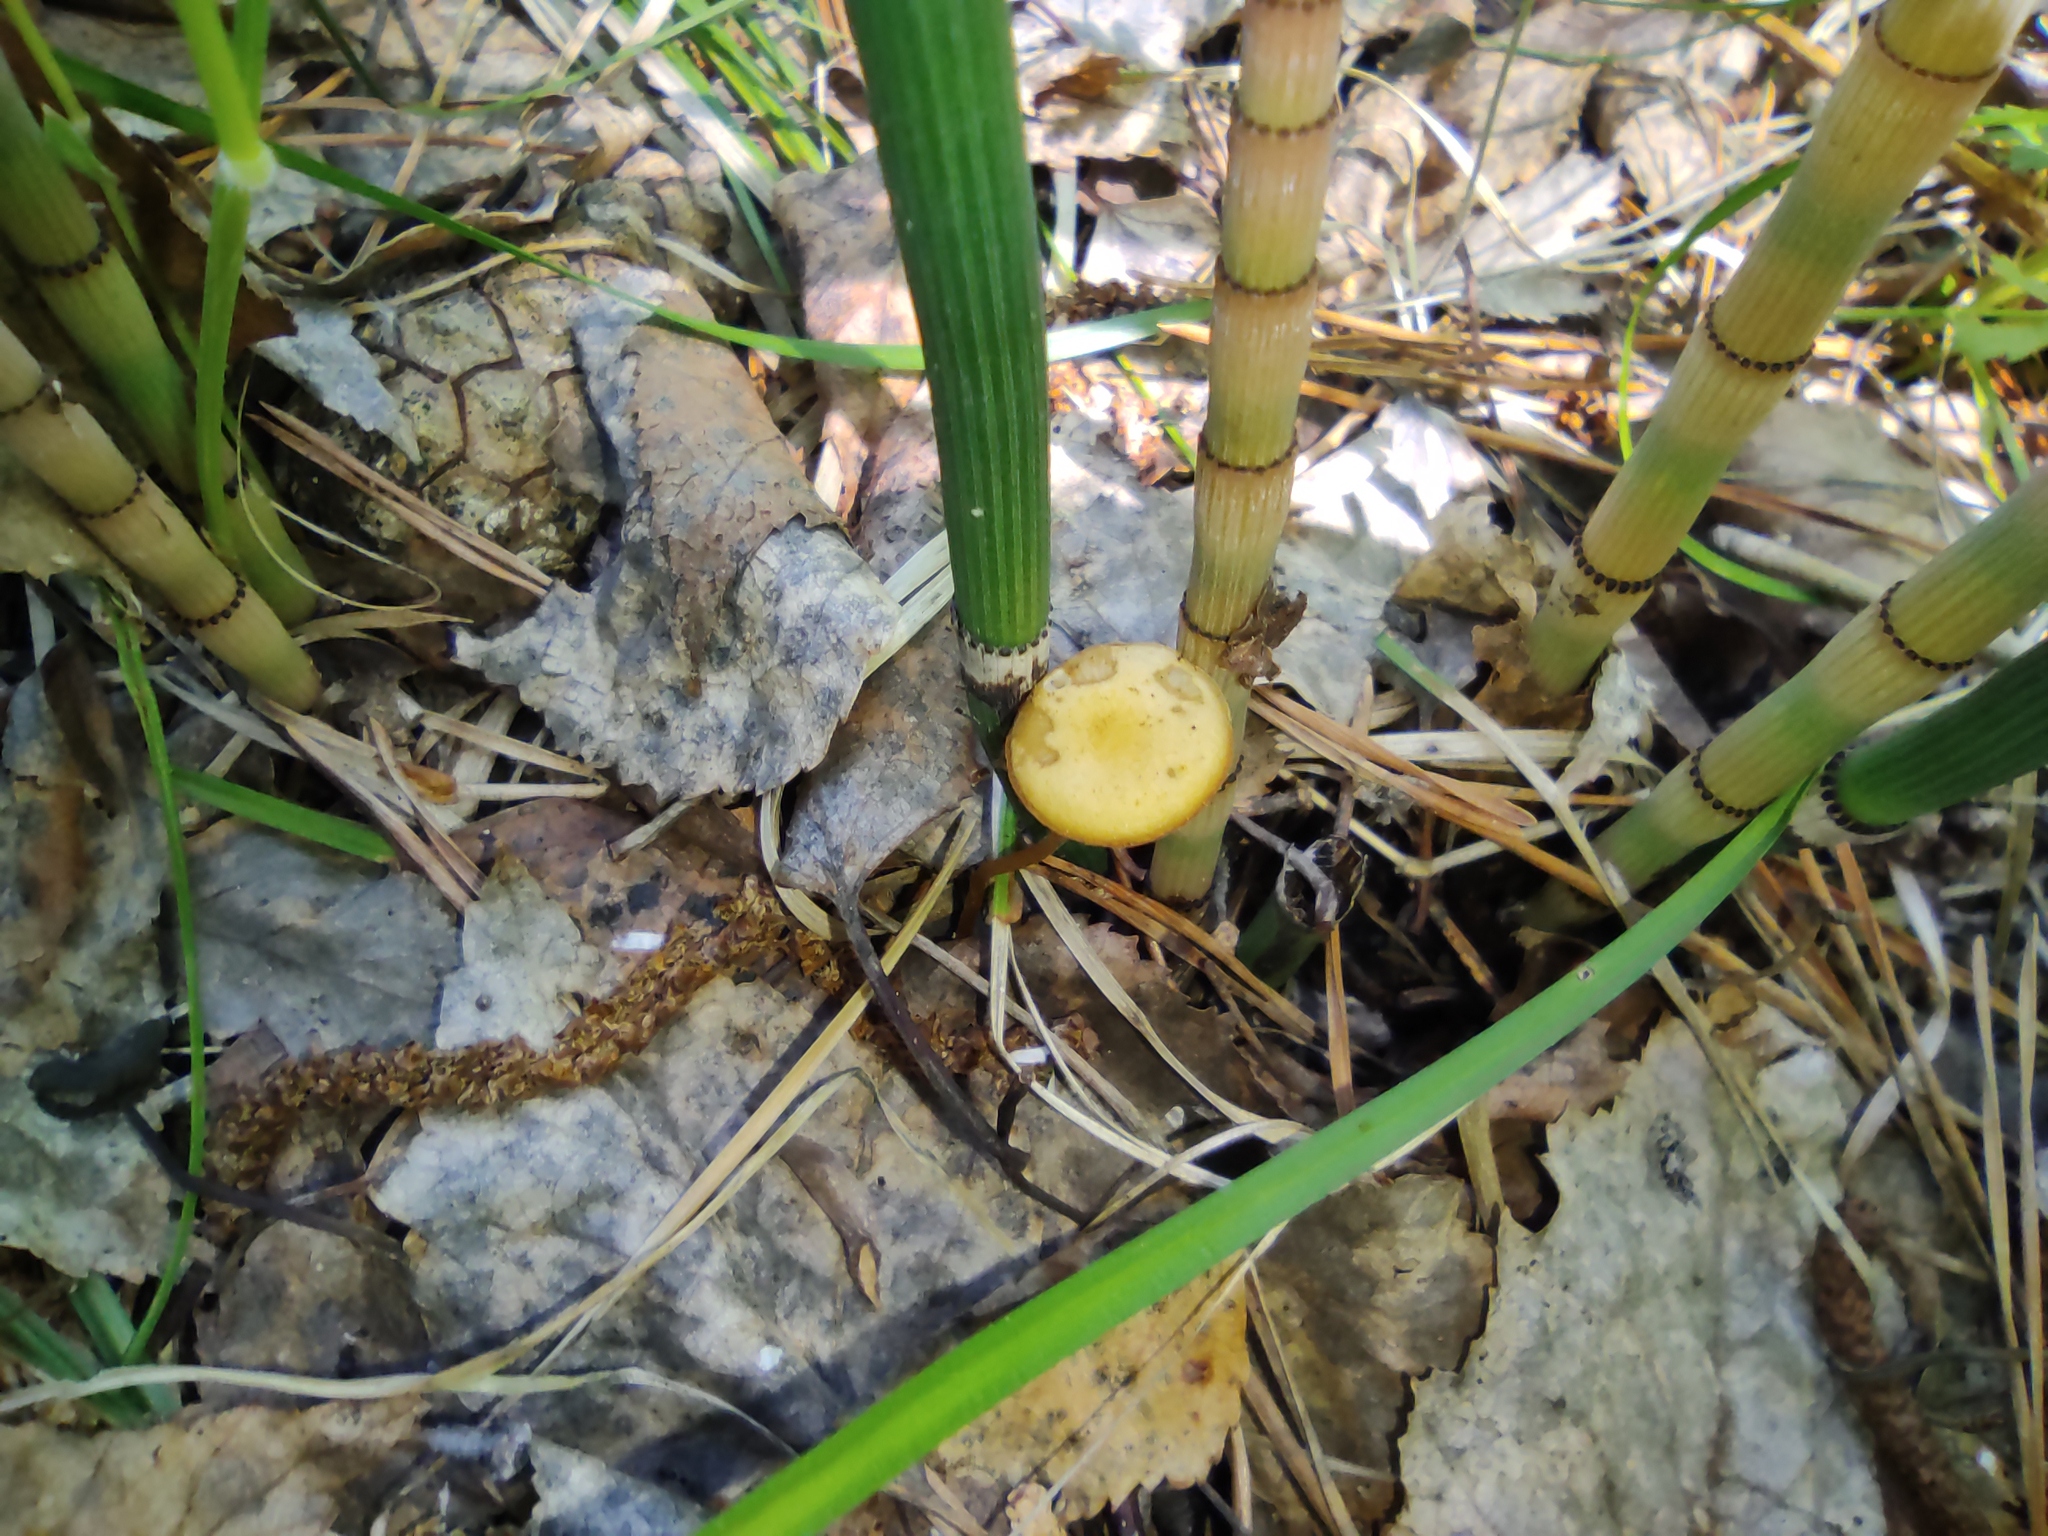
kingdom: Plantae
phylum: Tracheophyta
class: Polypodiopsida
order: Equisetales
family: Equisetaceae
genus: Equisetum
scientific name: Equisetum hyemale
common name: Rough horsetail
